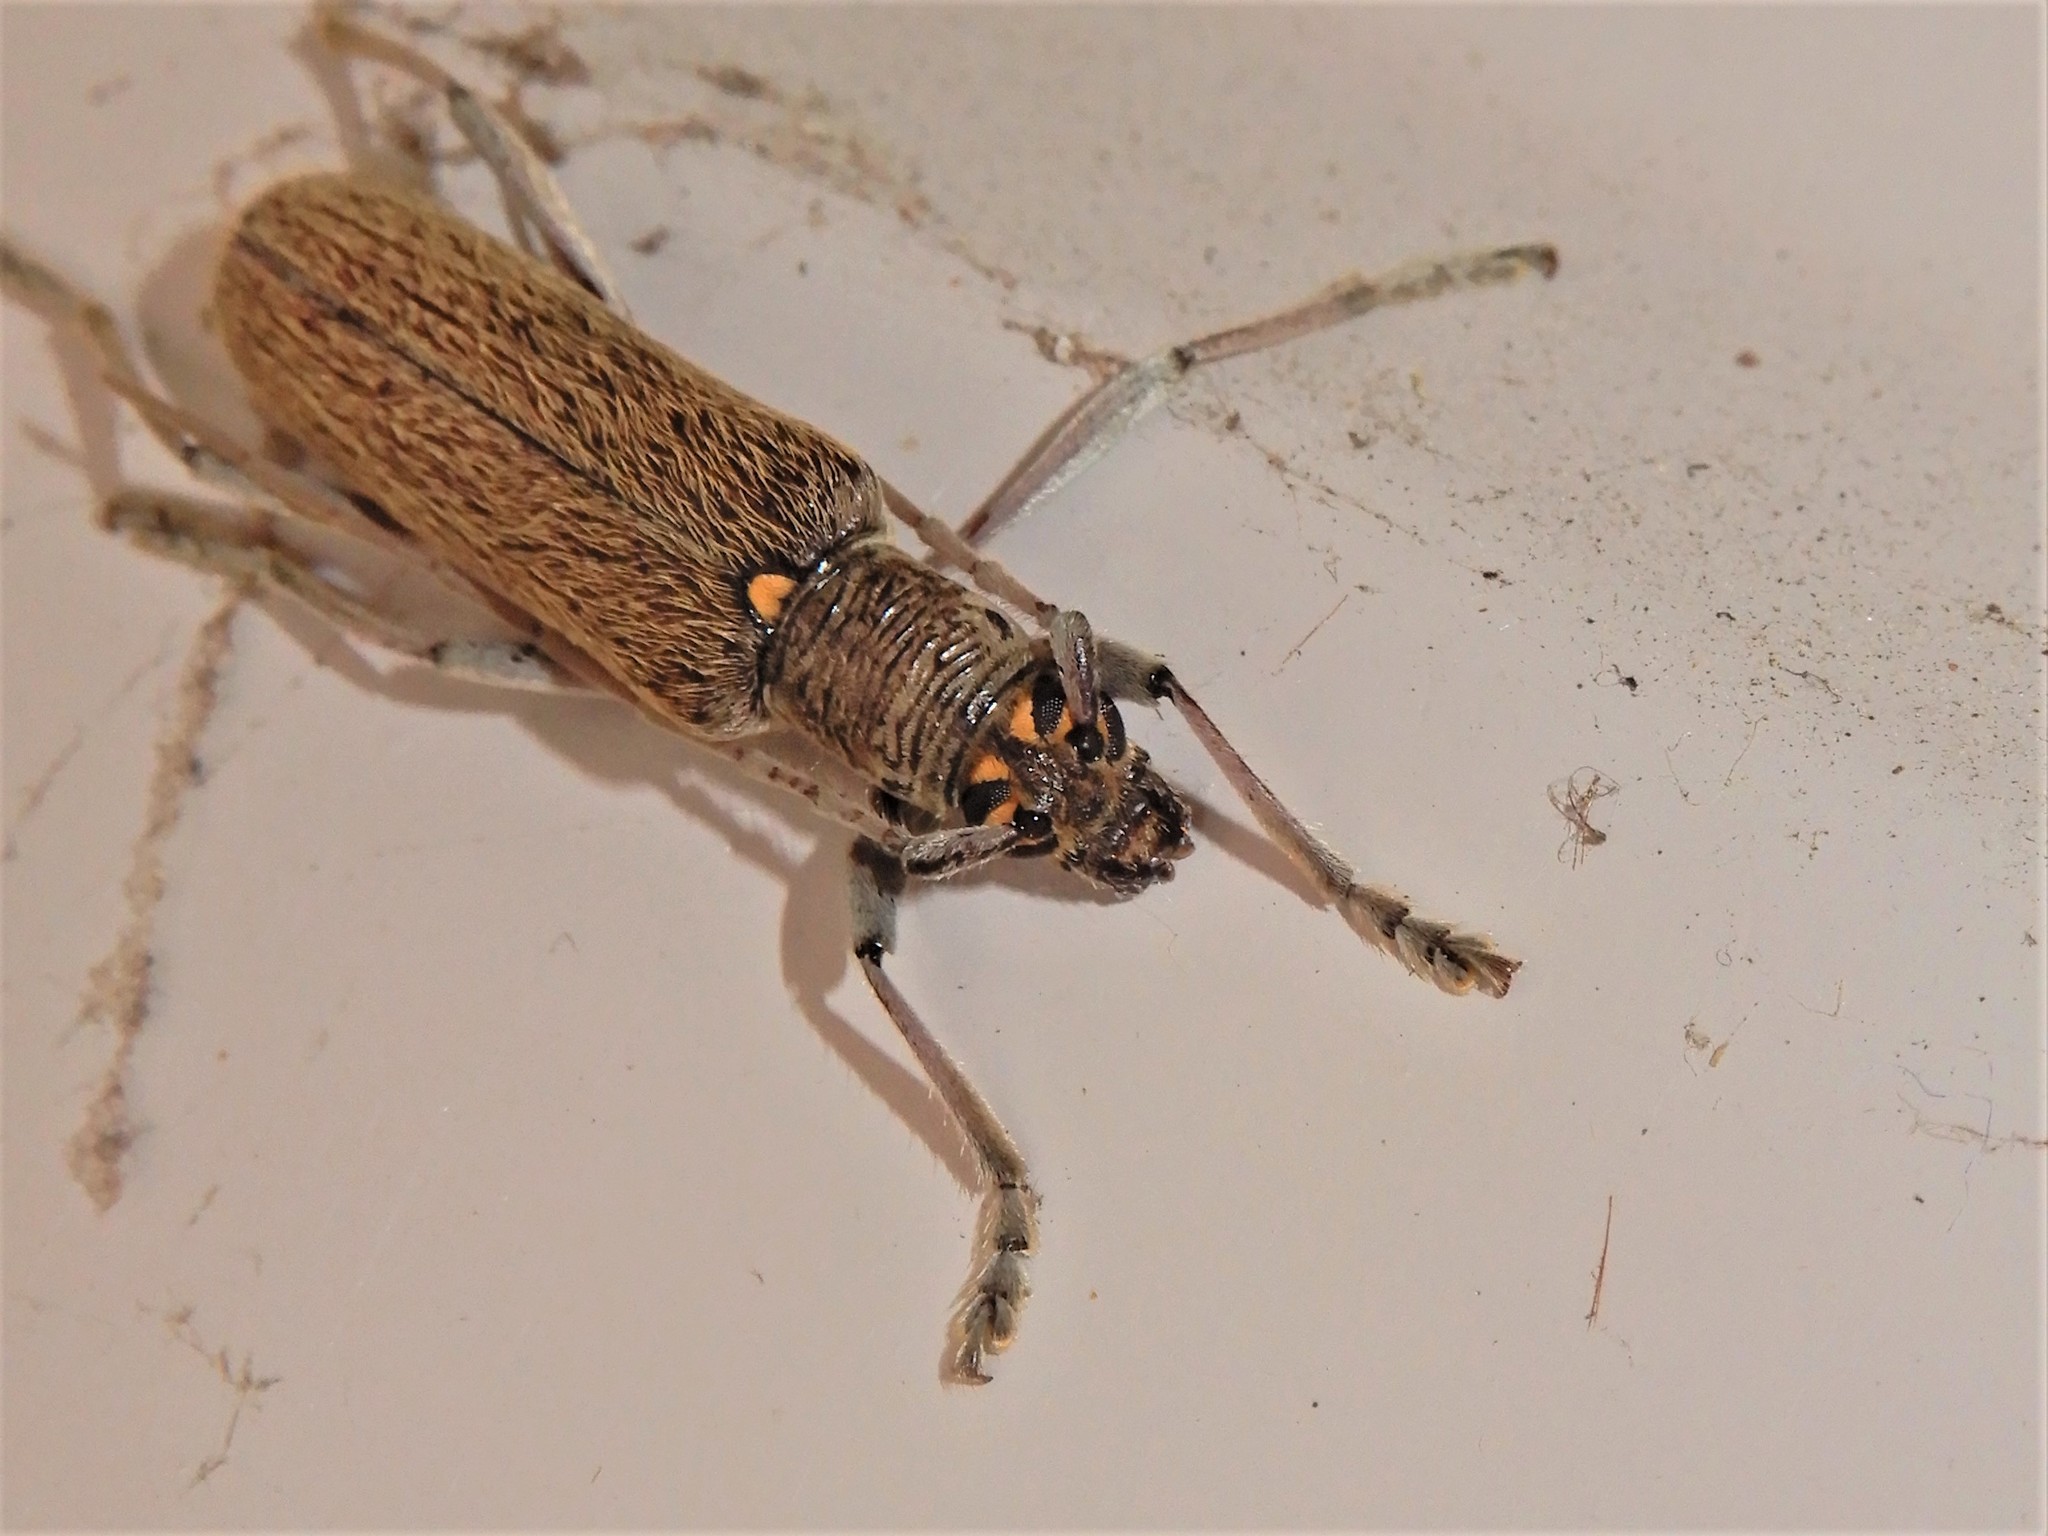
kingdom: Animalia
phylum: Arthropoda
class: Insecta
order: Coleoptera
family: Cerambycidae
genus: Oemona
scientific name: Oemona hirta
